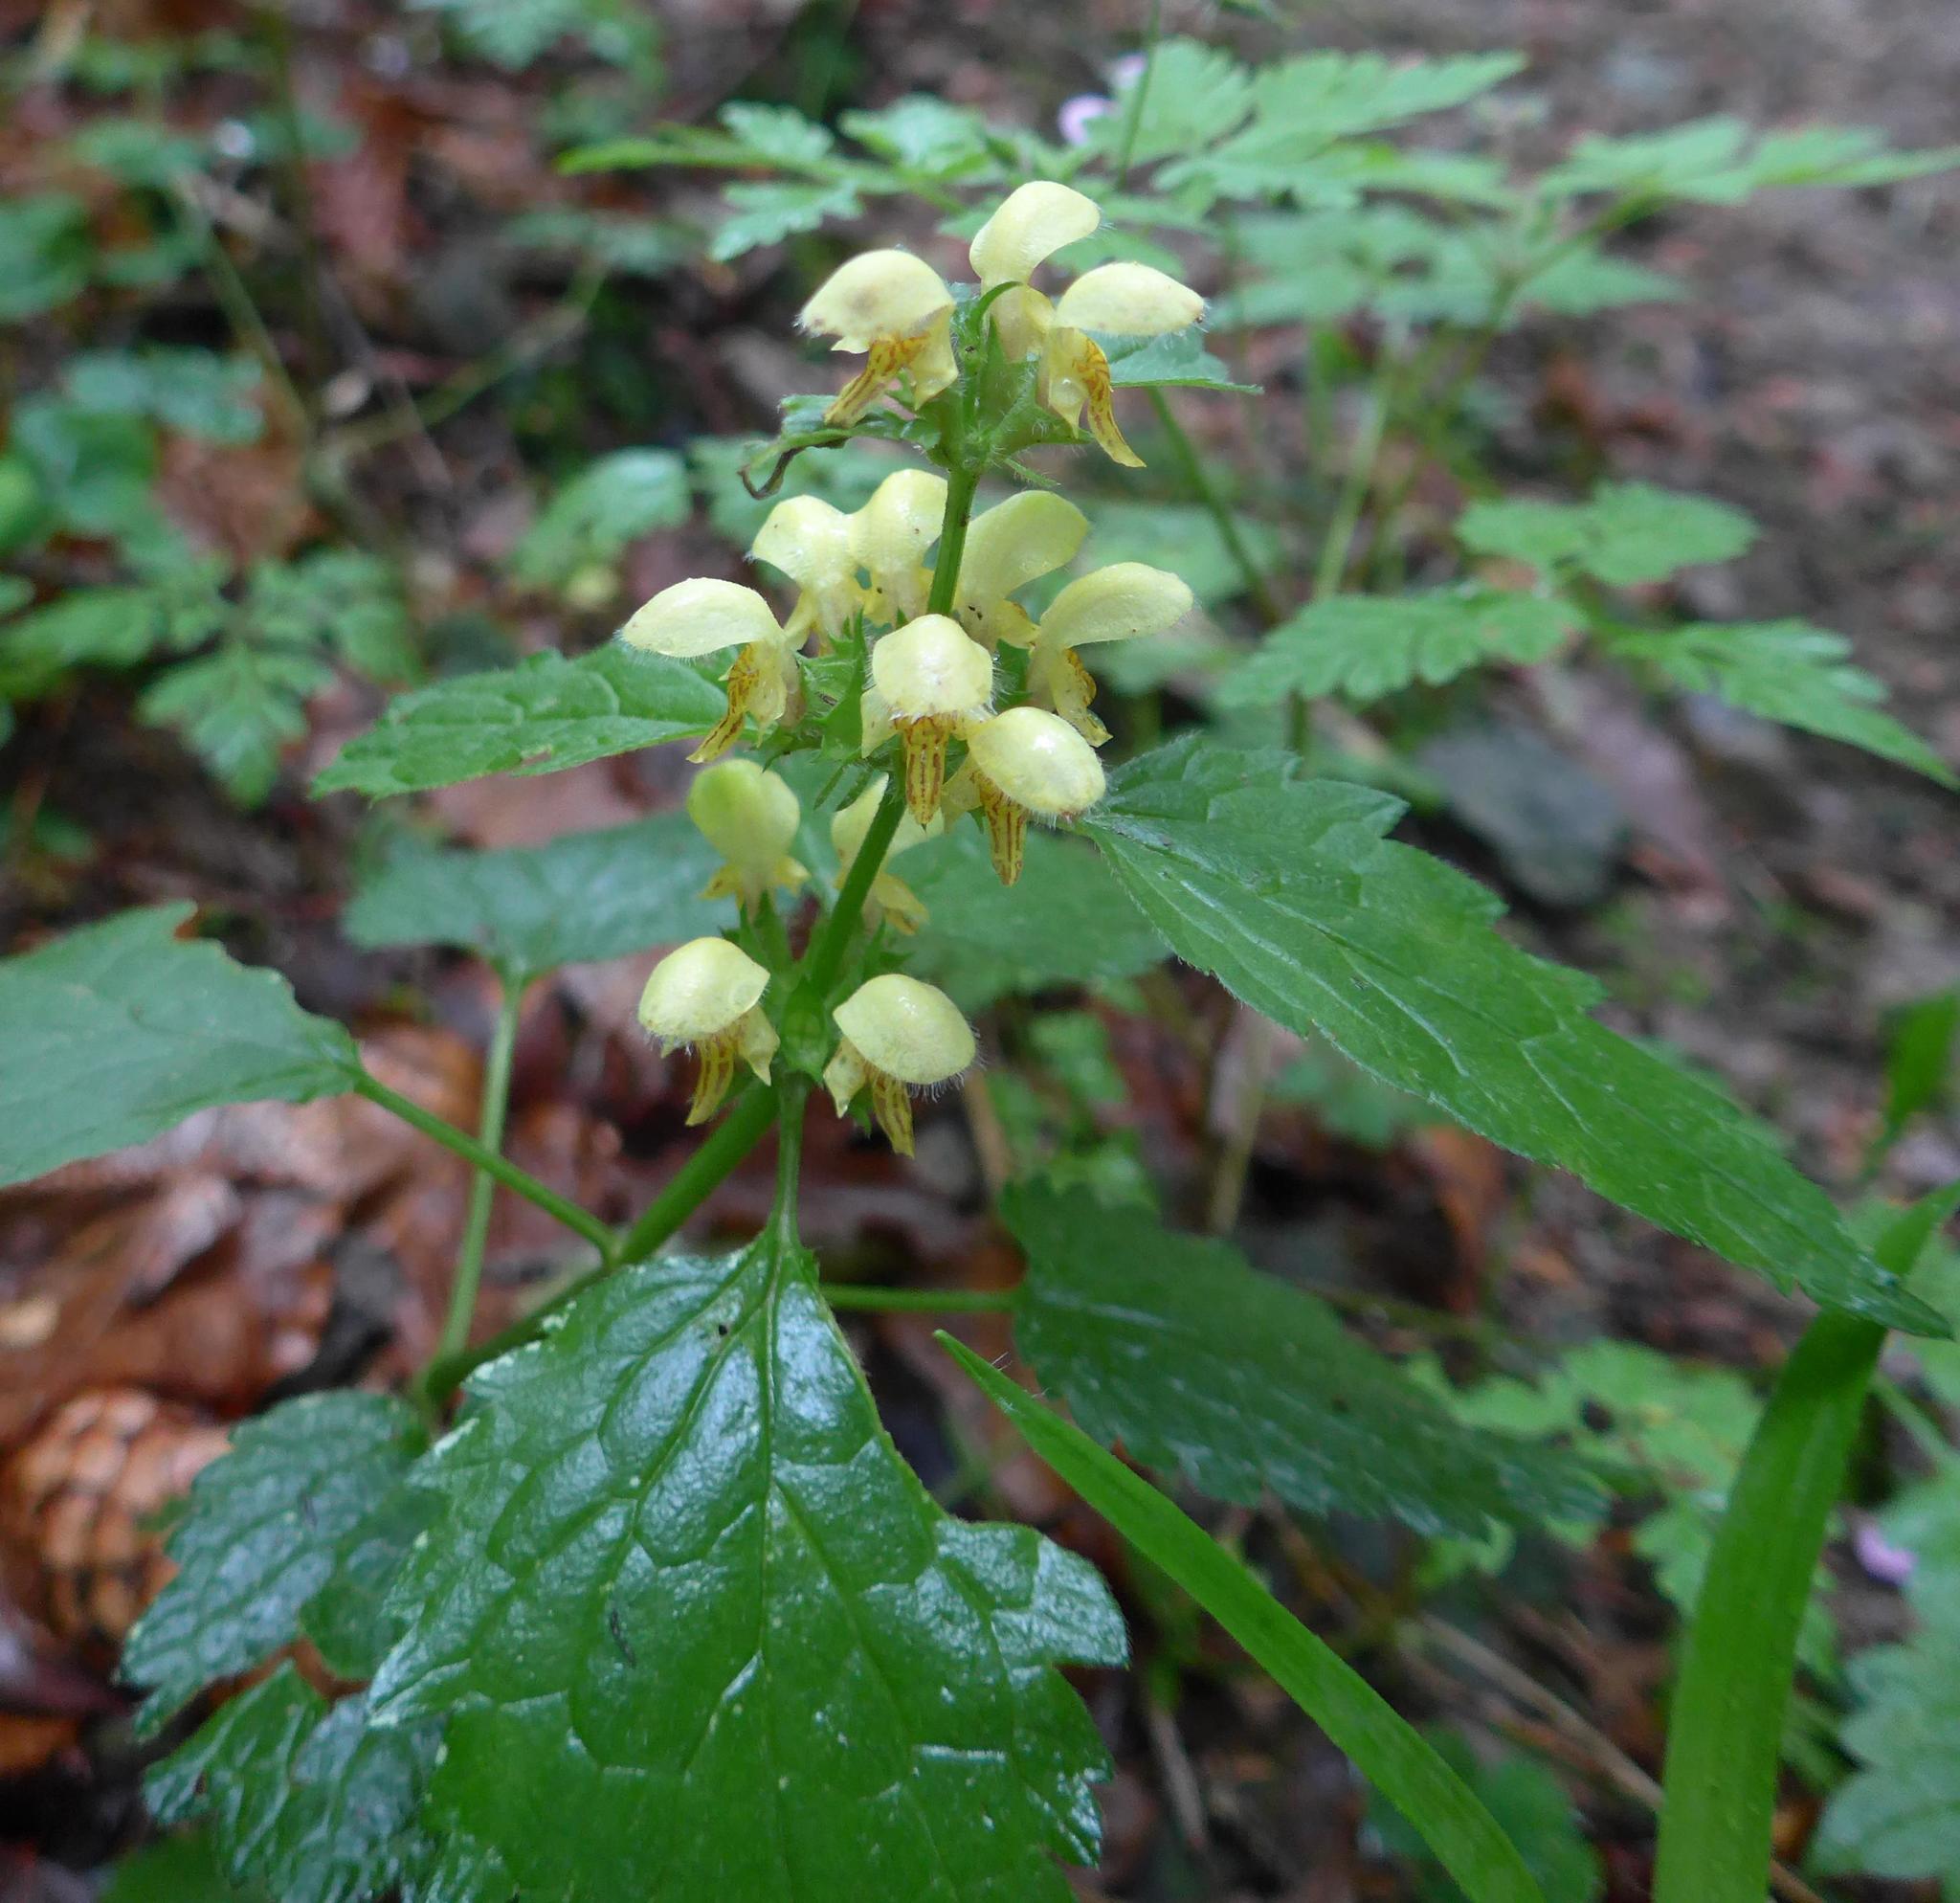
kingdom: Plantae
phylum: Tracheophyta
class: Magnoliopsida
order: Lamiales
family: Lamiaceae
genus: Lamium
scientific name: Lamium galeobdolon
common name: Yellow archangel
